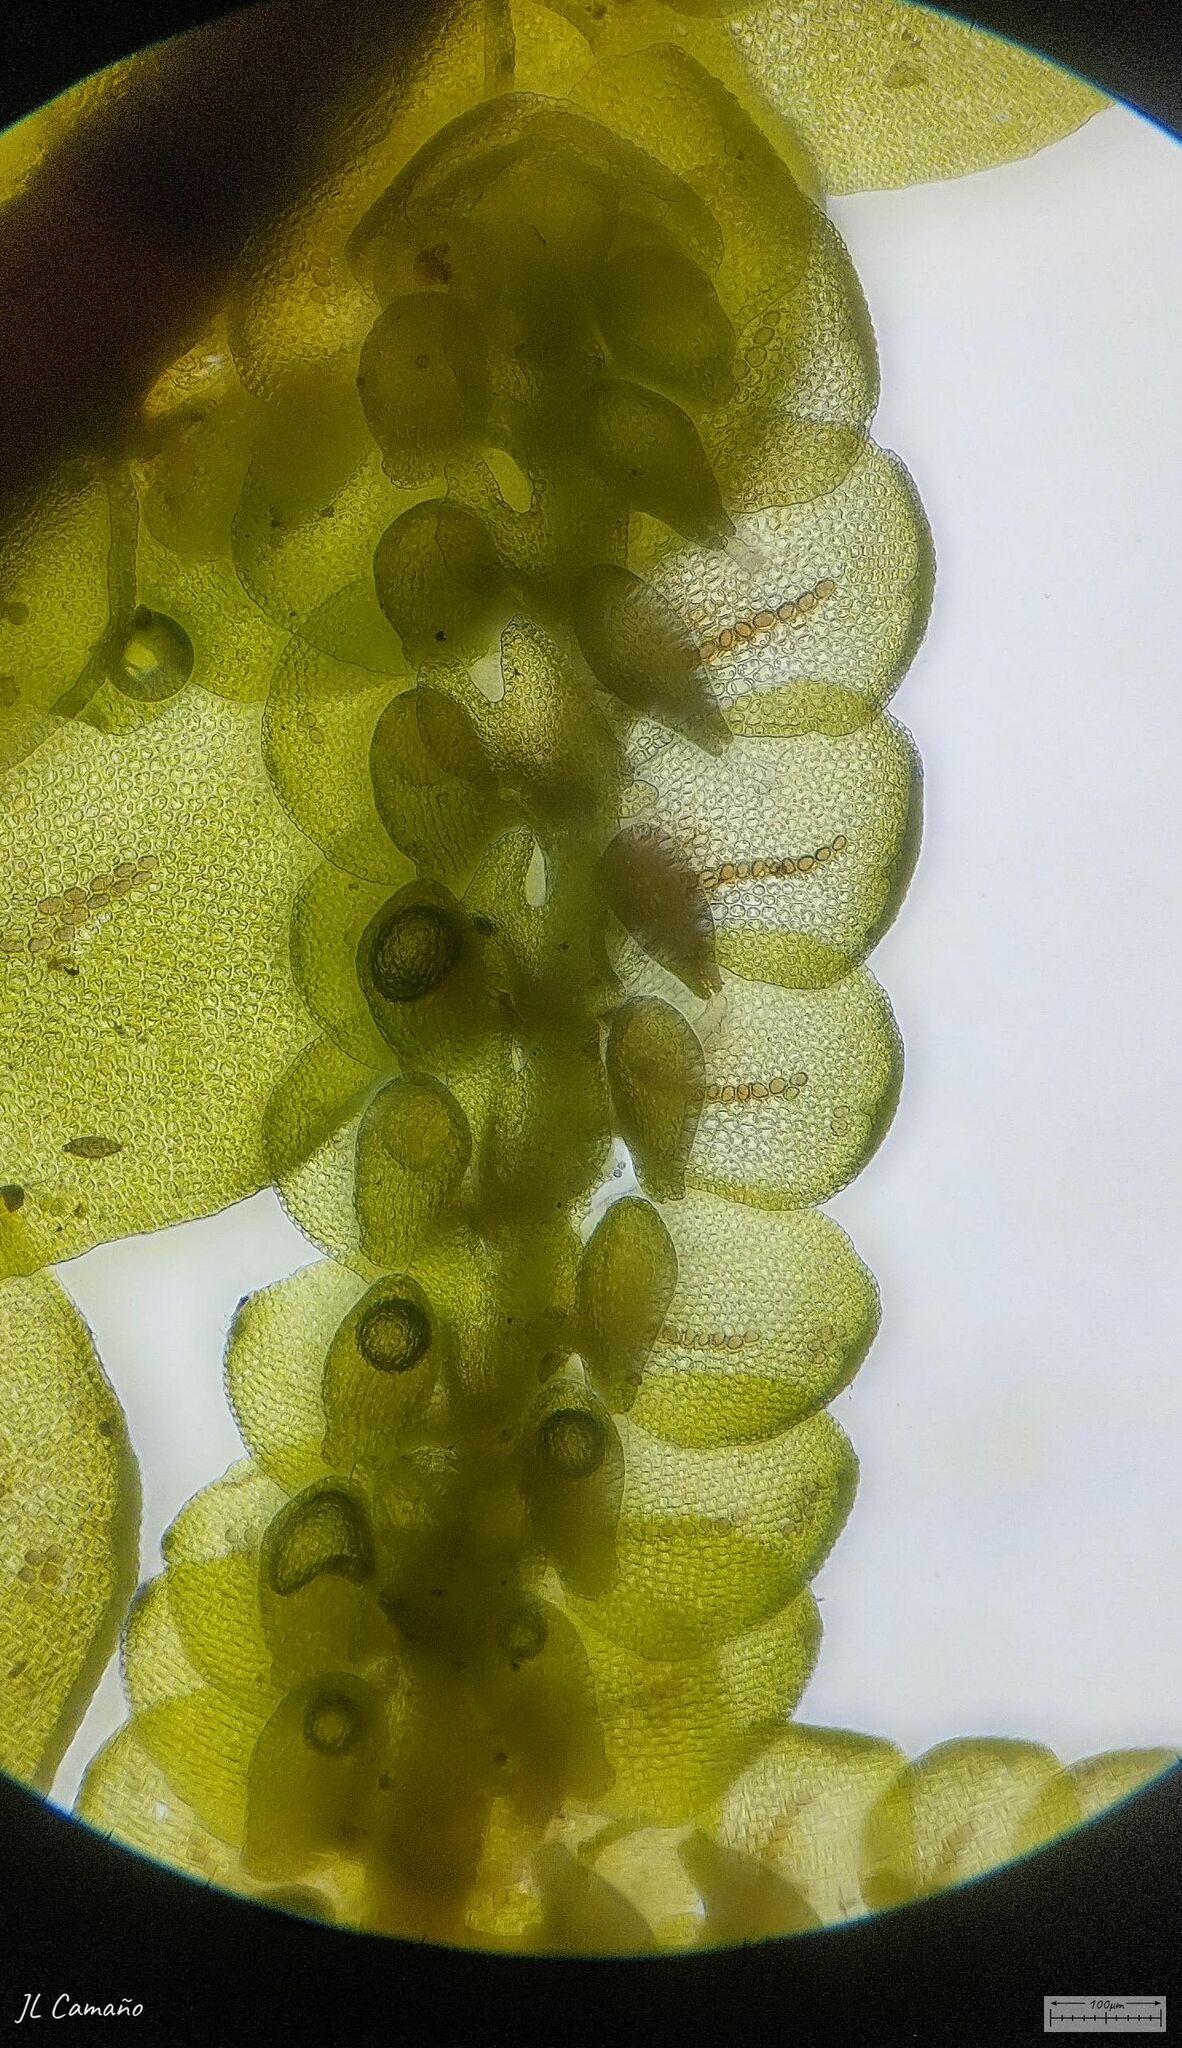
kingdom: Plantae
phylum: Marchantiophyta
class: Jungermanniopsida
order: Porellales
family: Frullaniaceae
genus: Frullania
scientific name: Frullania tamarisci
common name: Tamarisk scalewort
